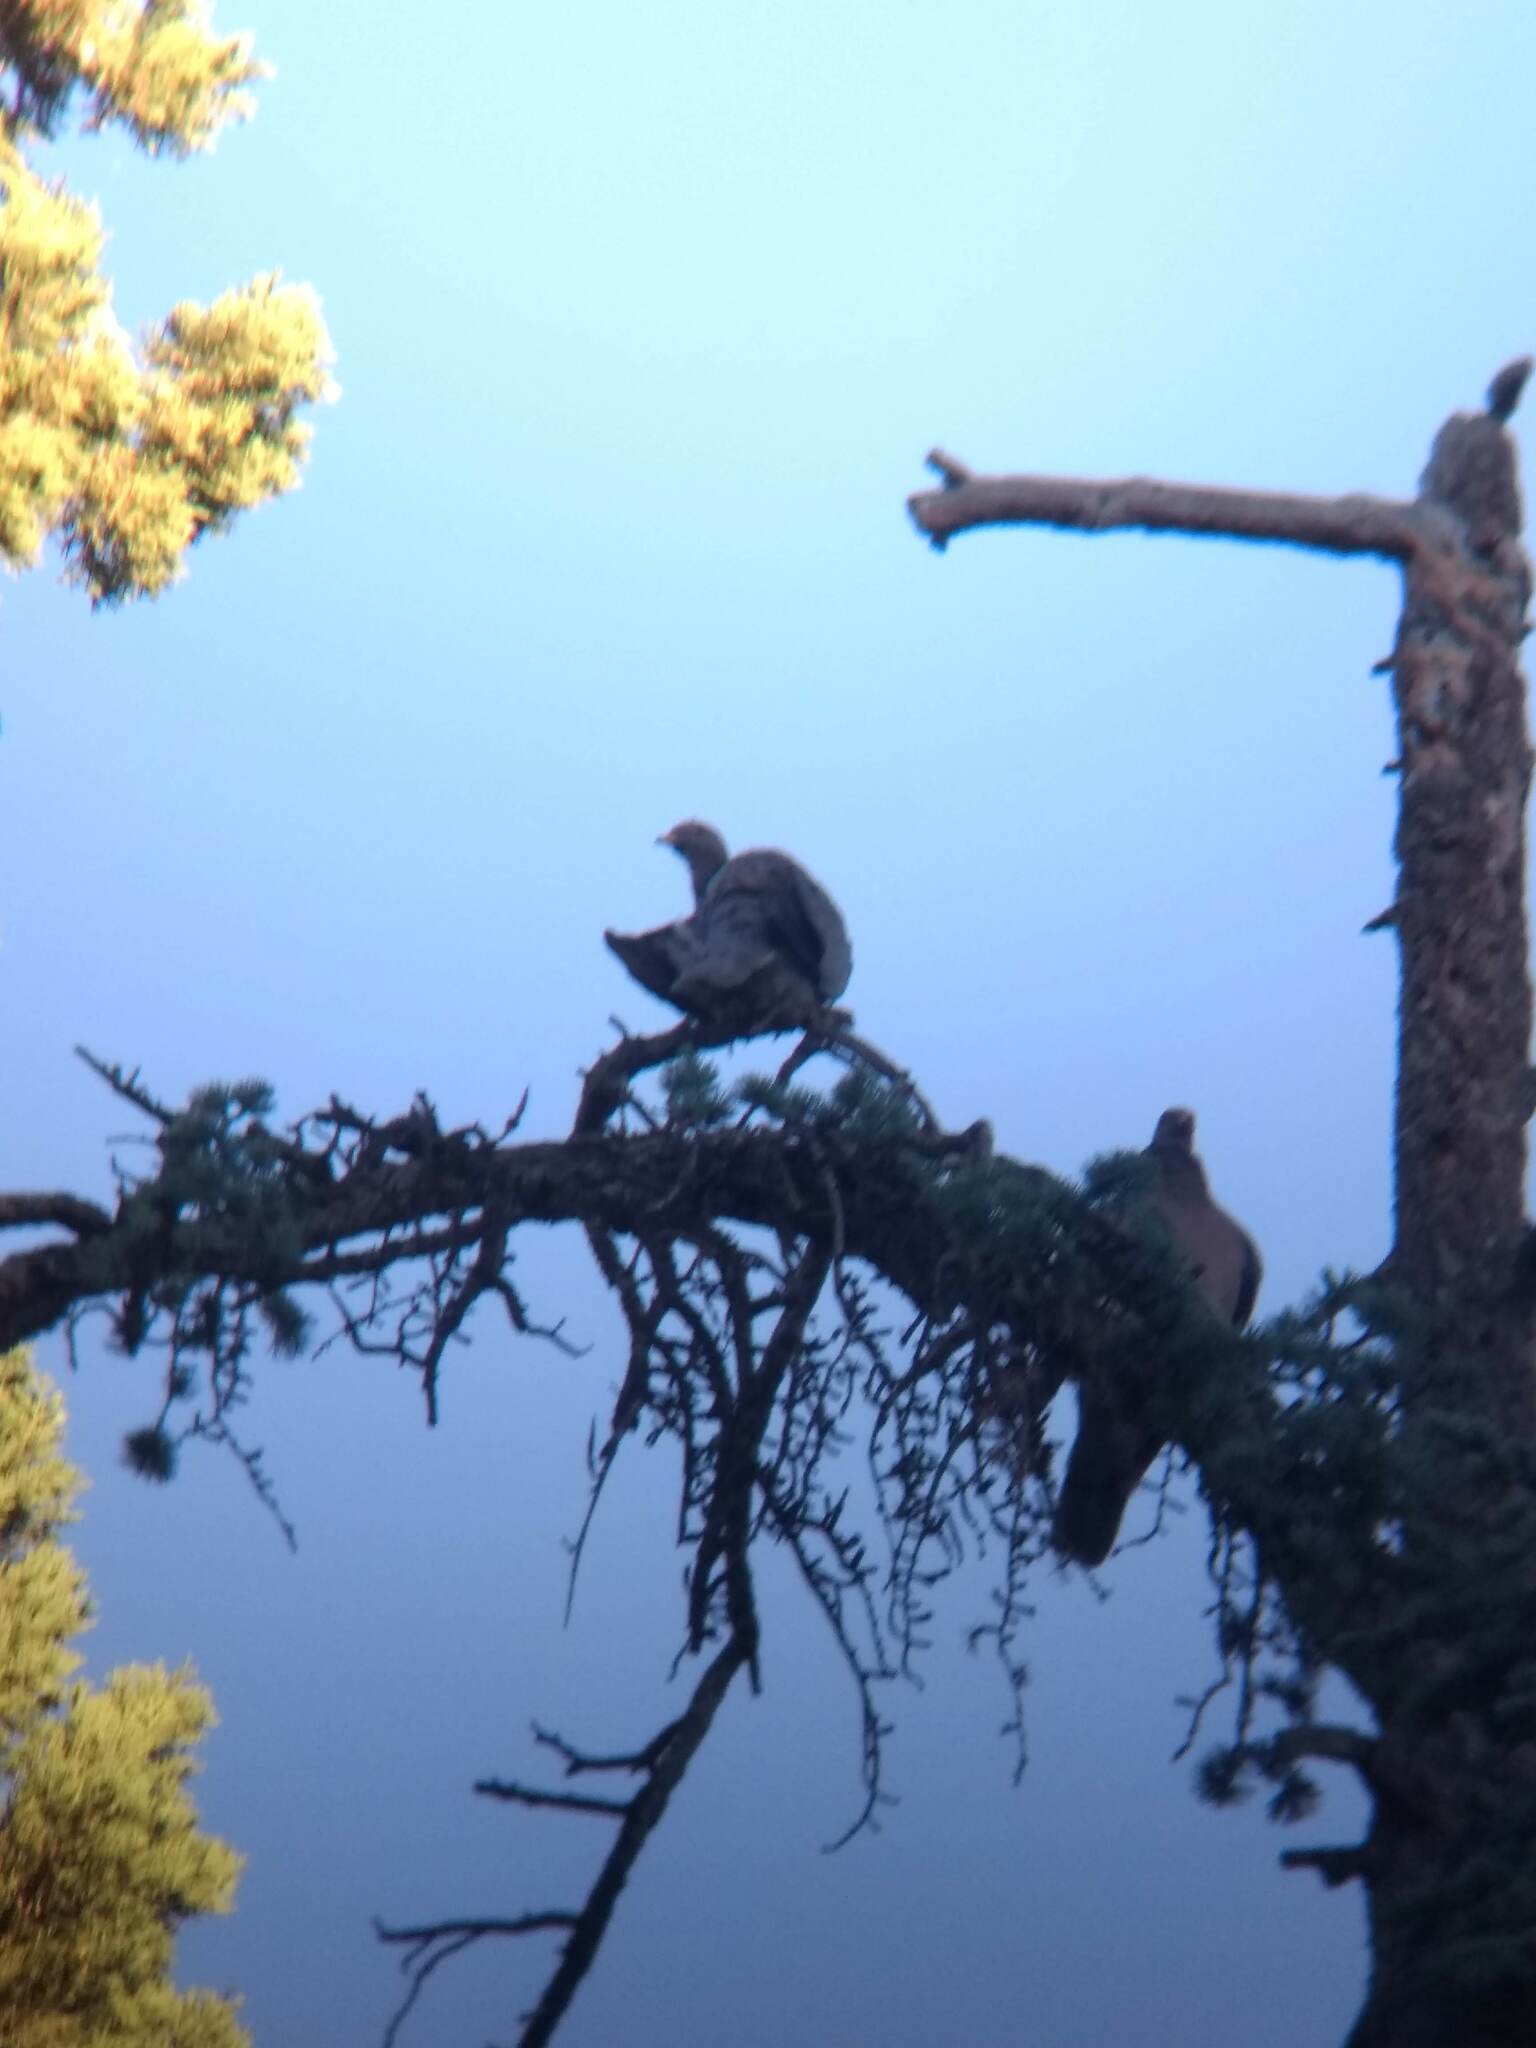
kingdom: Animalia
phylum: Chordata
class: Aves
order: Columbiformes
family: Columbidae
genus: Patagioenas
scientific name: Patagioenas fasciata
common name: Band-tailed pigeon
